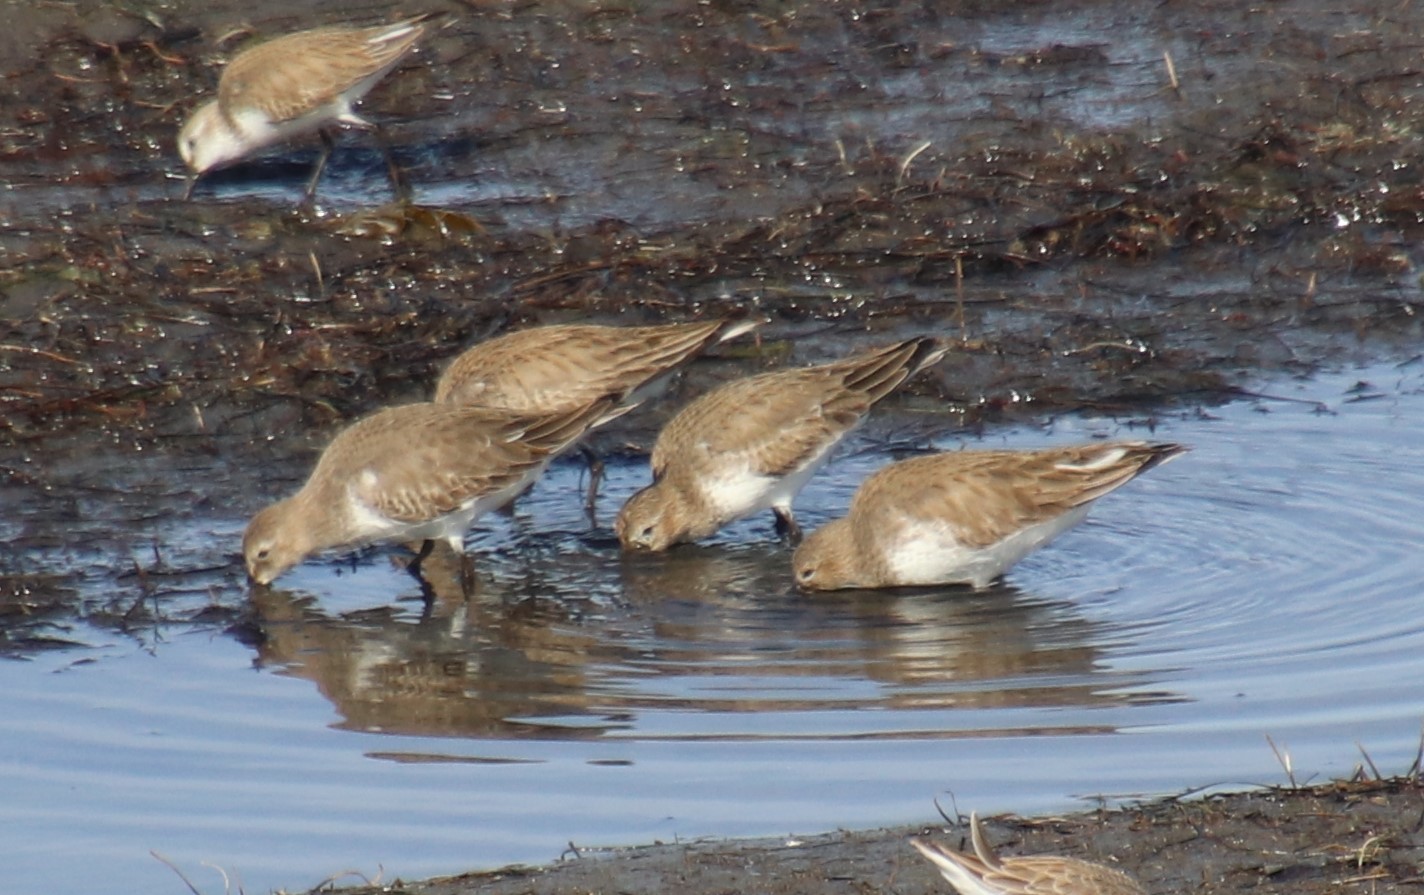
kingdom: Animalia
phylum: Chordata
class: Aves
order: Charadriiformes
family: Scolopacidae
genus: Calidris
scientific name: Calidris alpina
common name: Dunlin
